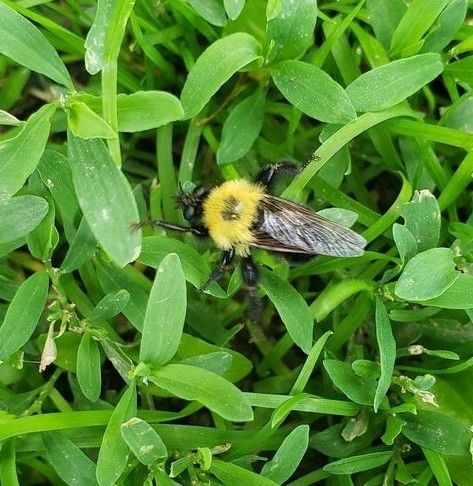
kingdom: Animalia
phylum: Arthropoda
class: Insecta
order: Diptera
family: Asilidae
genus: Laphria
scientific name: Laphria thoracica
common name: Bumble bee mimic robber fly
